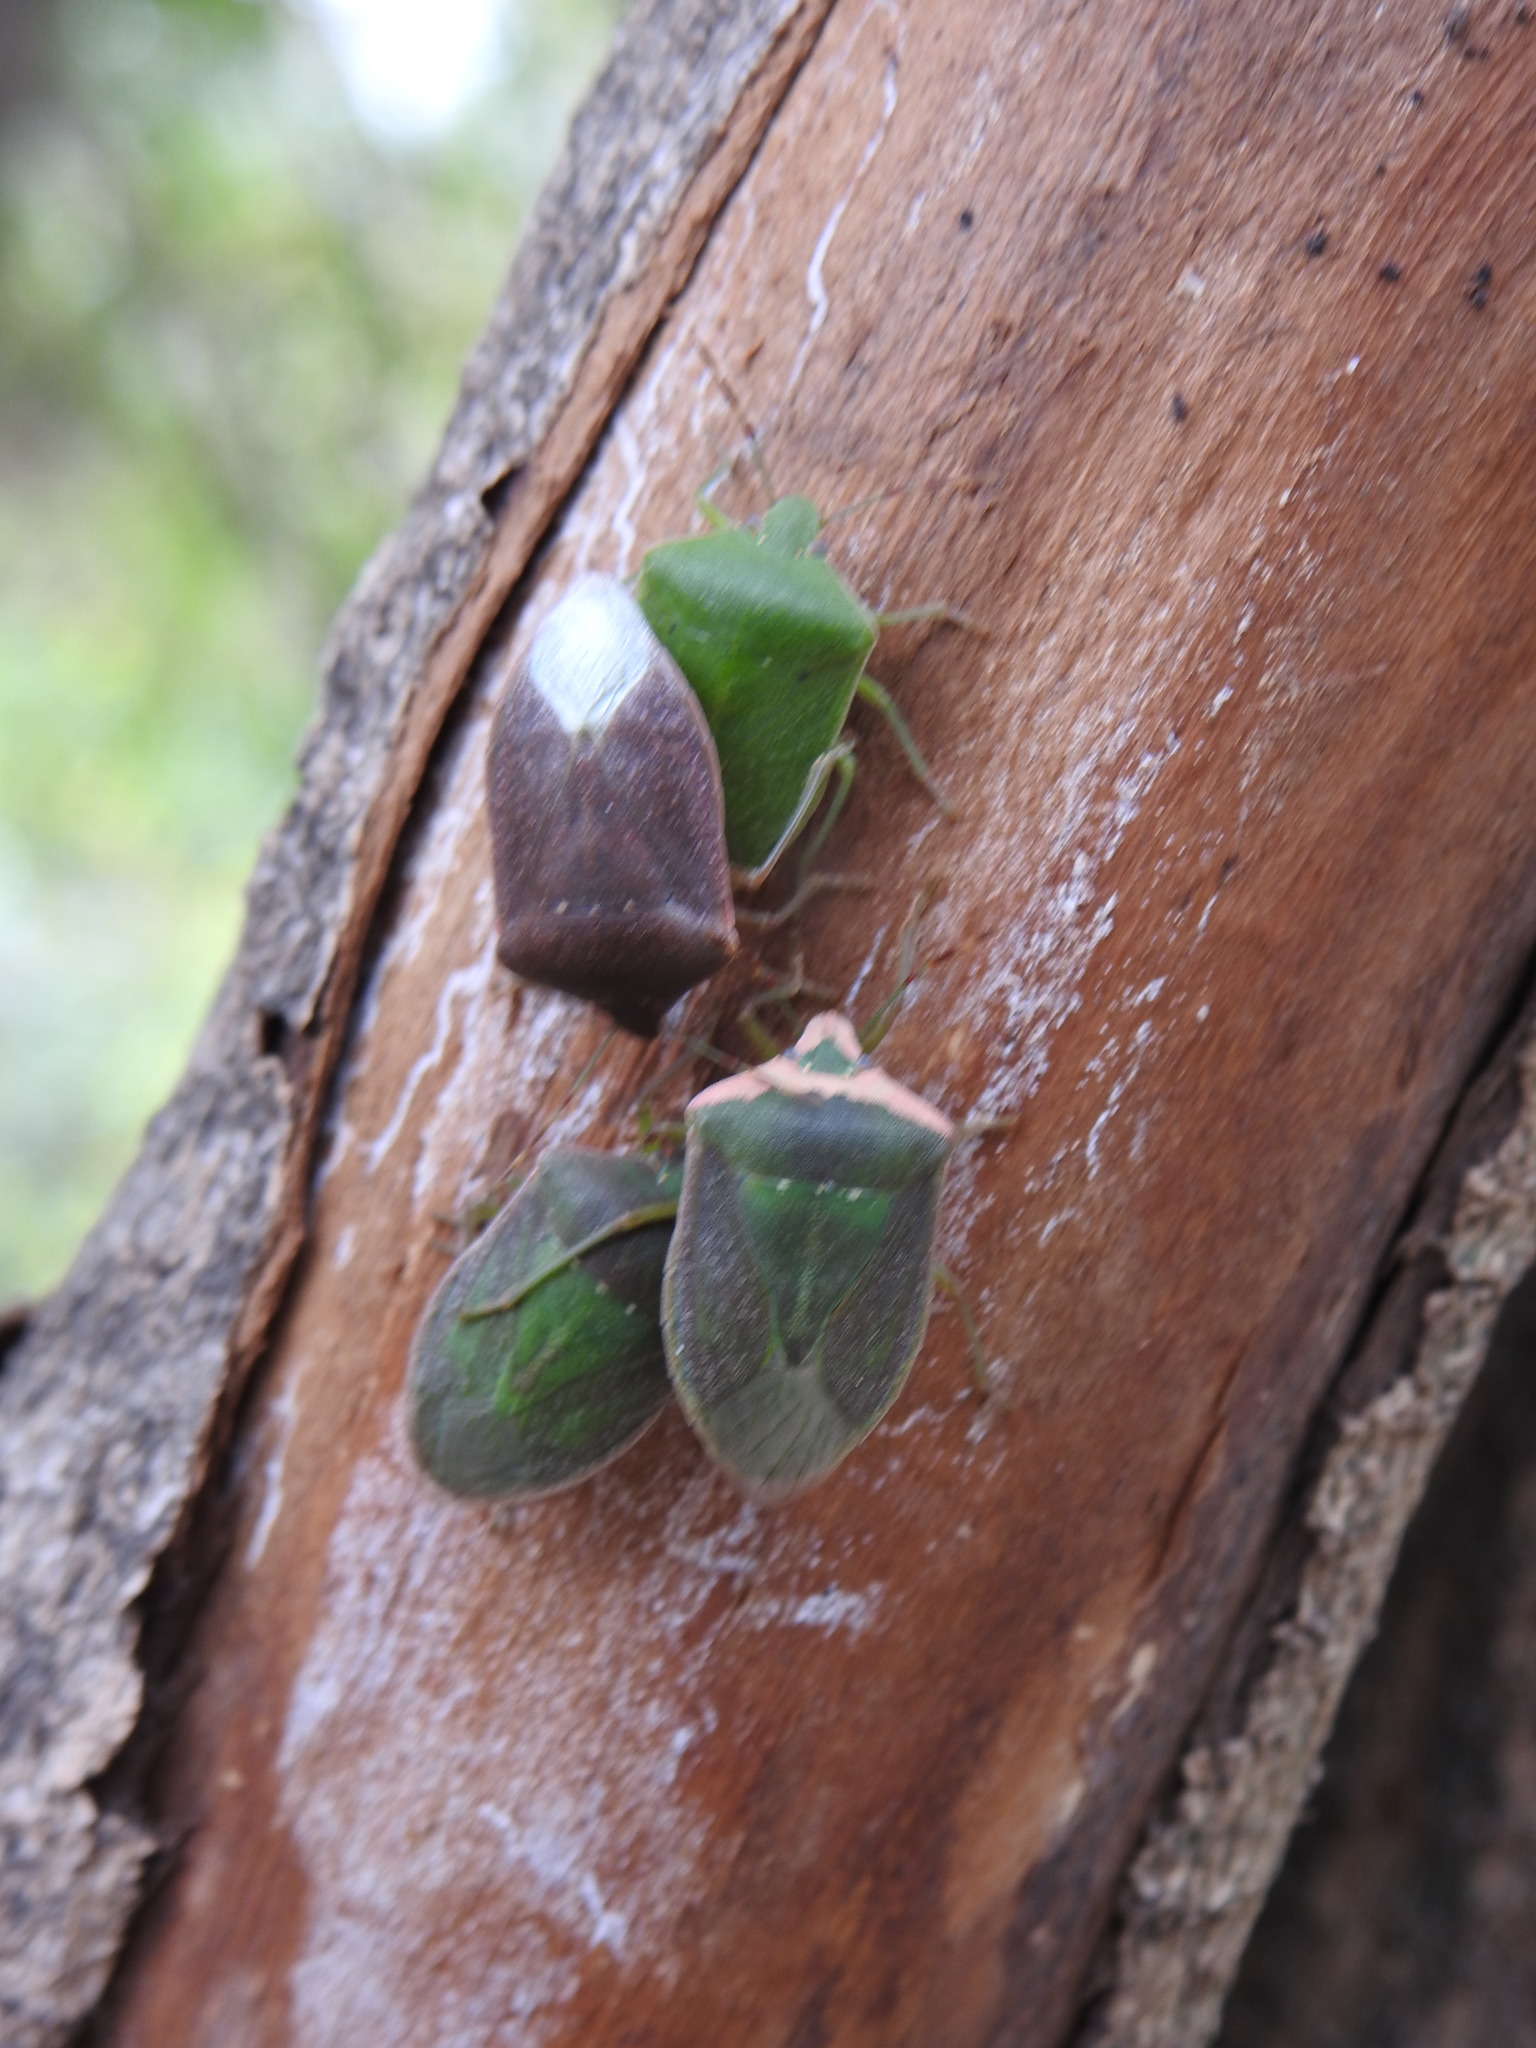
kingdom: Animalia
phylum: Arthropoda
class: Insecta
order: Hemiptera
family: Pentatomidae
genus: Nezara
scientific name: Nezara viridula
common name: Southern green stink bug
